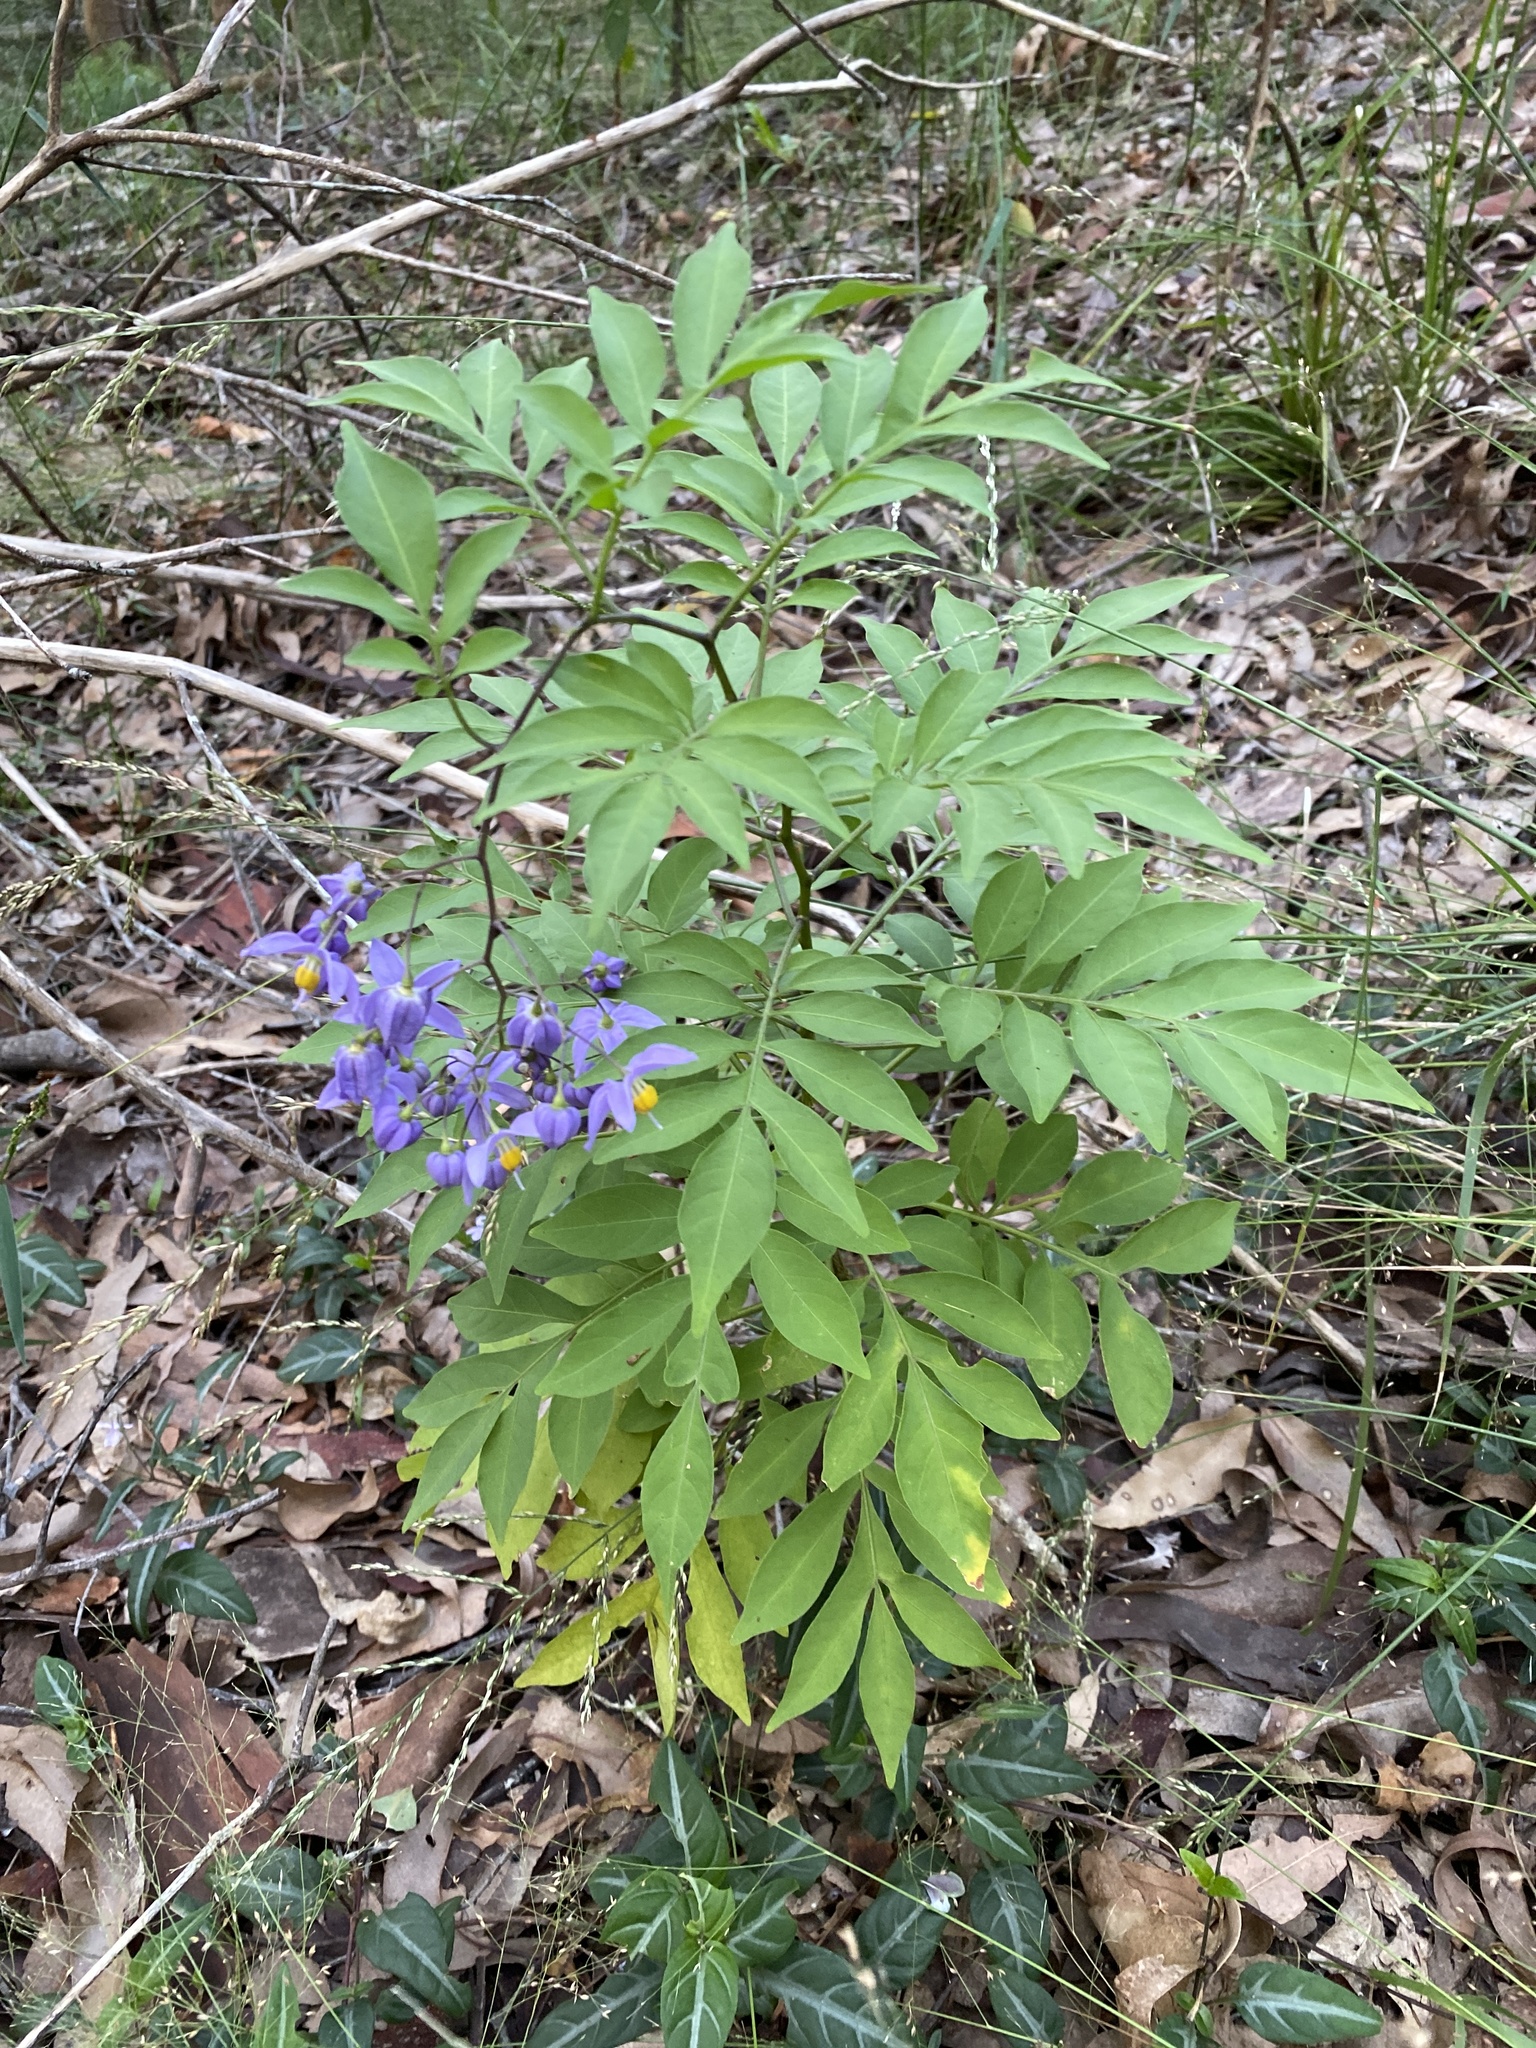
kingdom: Plantae
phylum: Tracheophyta
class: Magnoliopsida
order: Solanales
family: Solanaceae
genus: Solanum
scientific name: Solanum seaforthianum
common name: Brazilian nightshade
